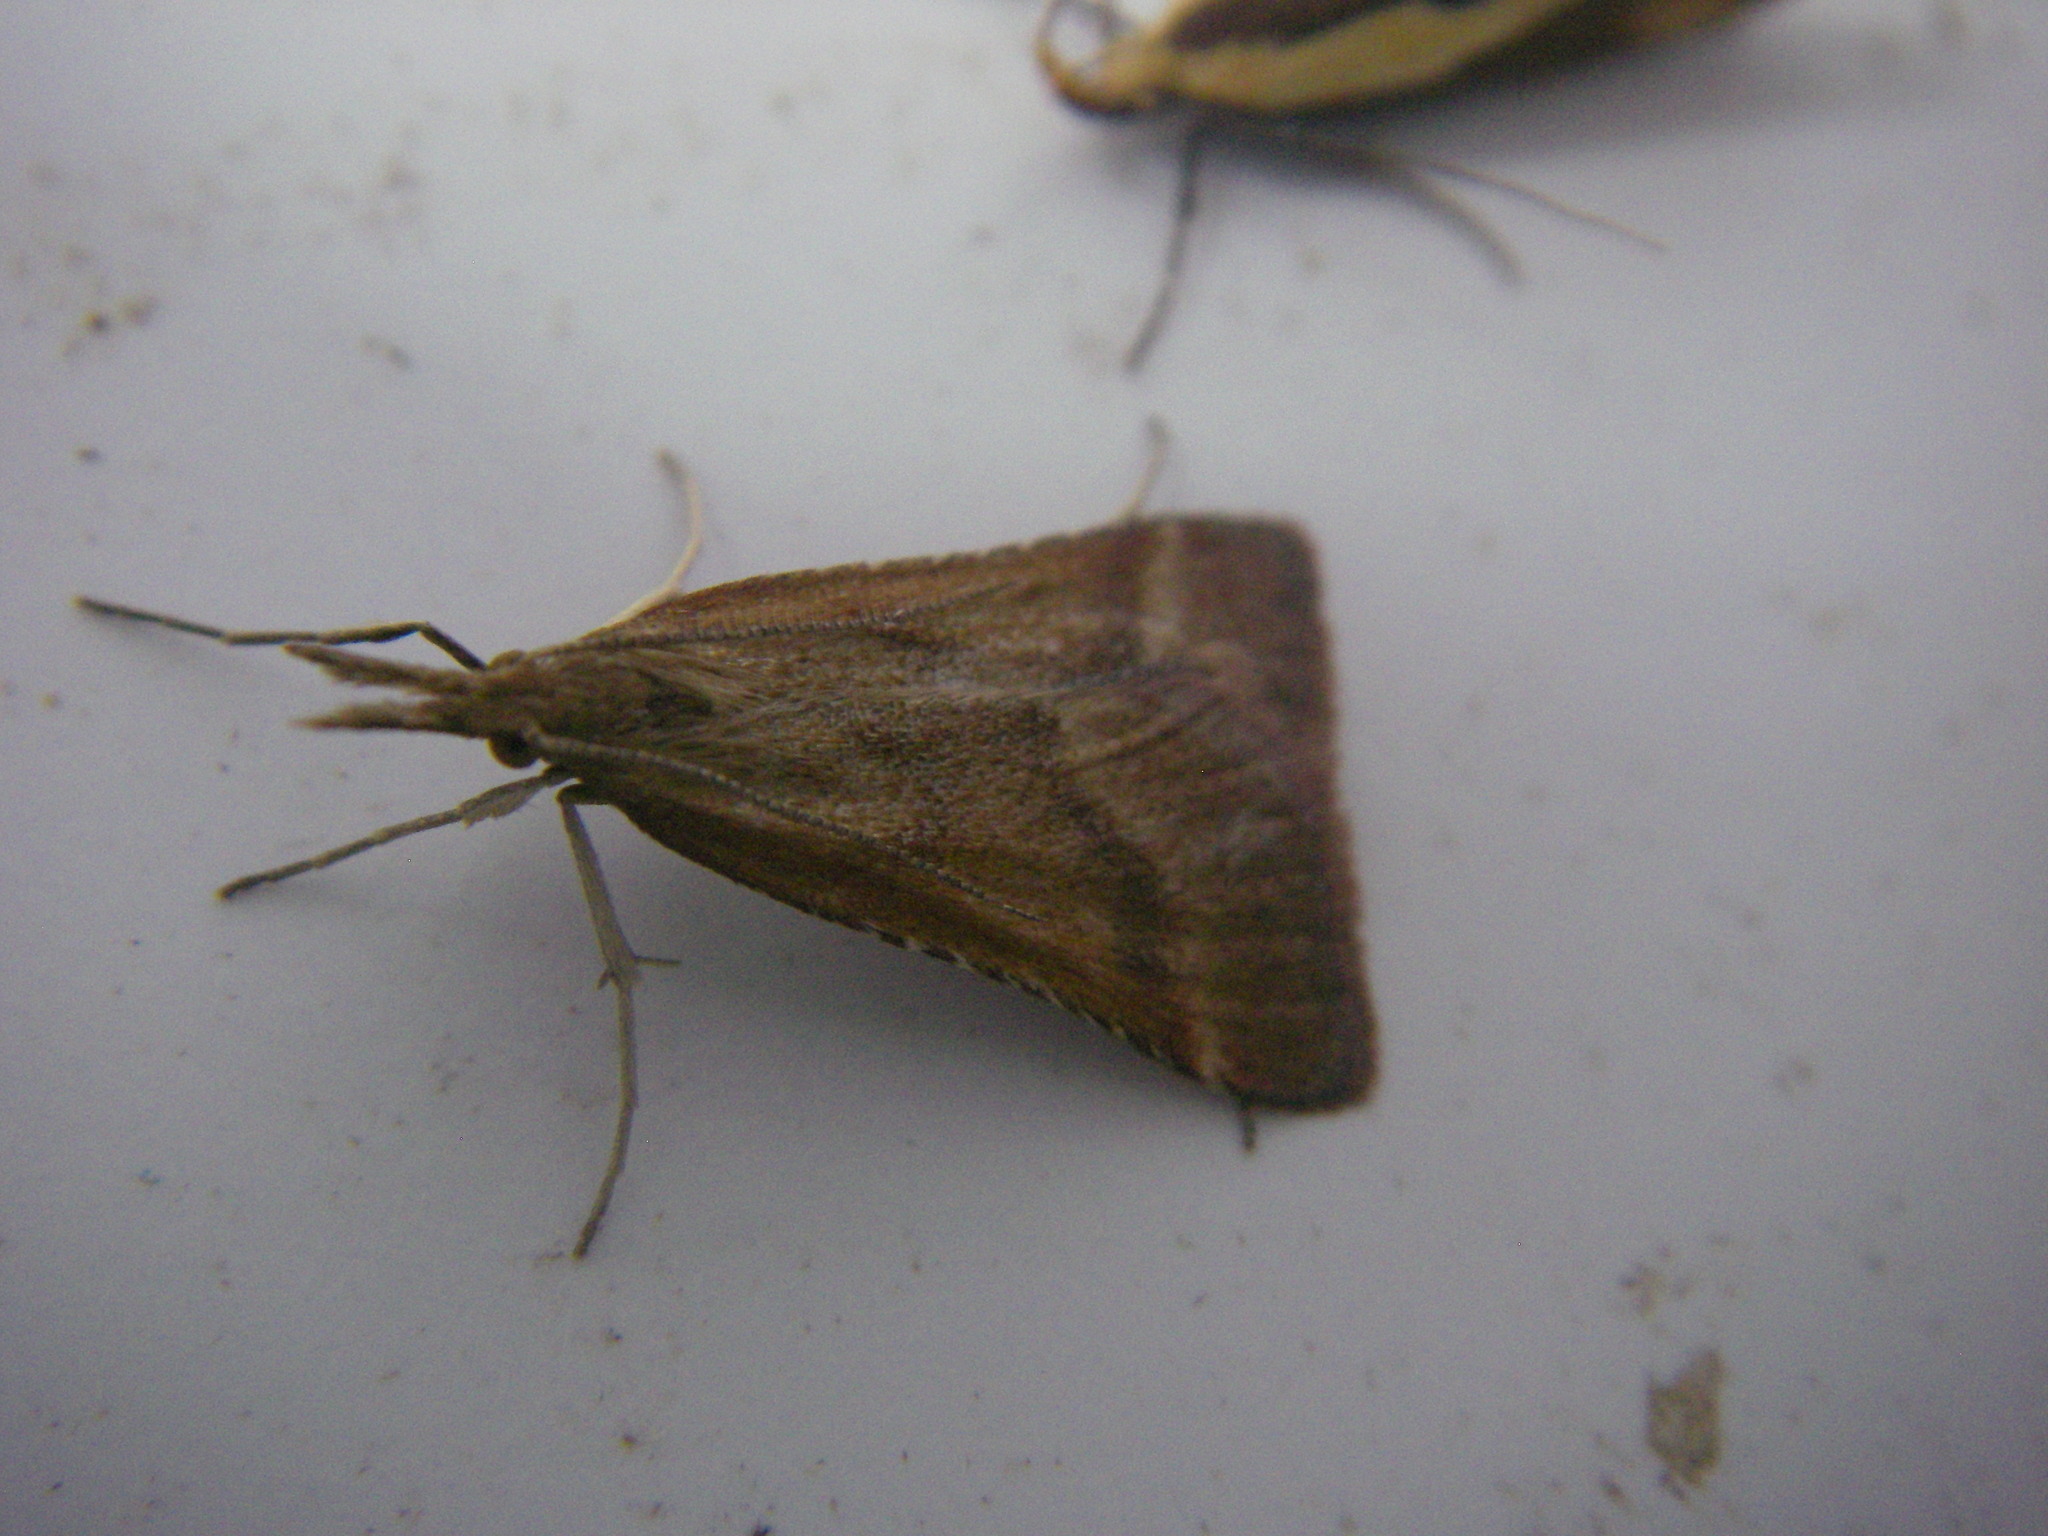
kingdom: Animalia
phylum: Arthropoda
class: Insecta
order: Lepidoptera
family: Pyralidae
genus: Synaphe
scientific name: Synaphe punctalis
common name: Long-legged tabby
